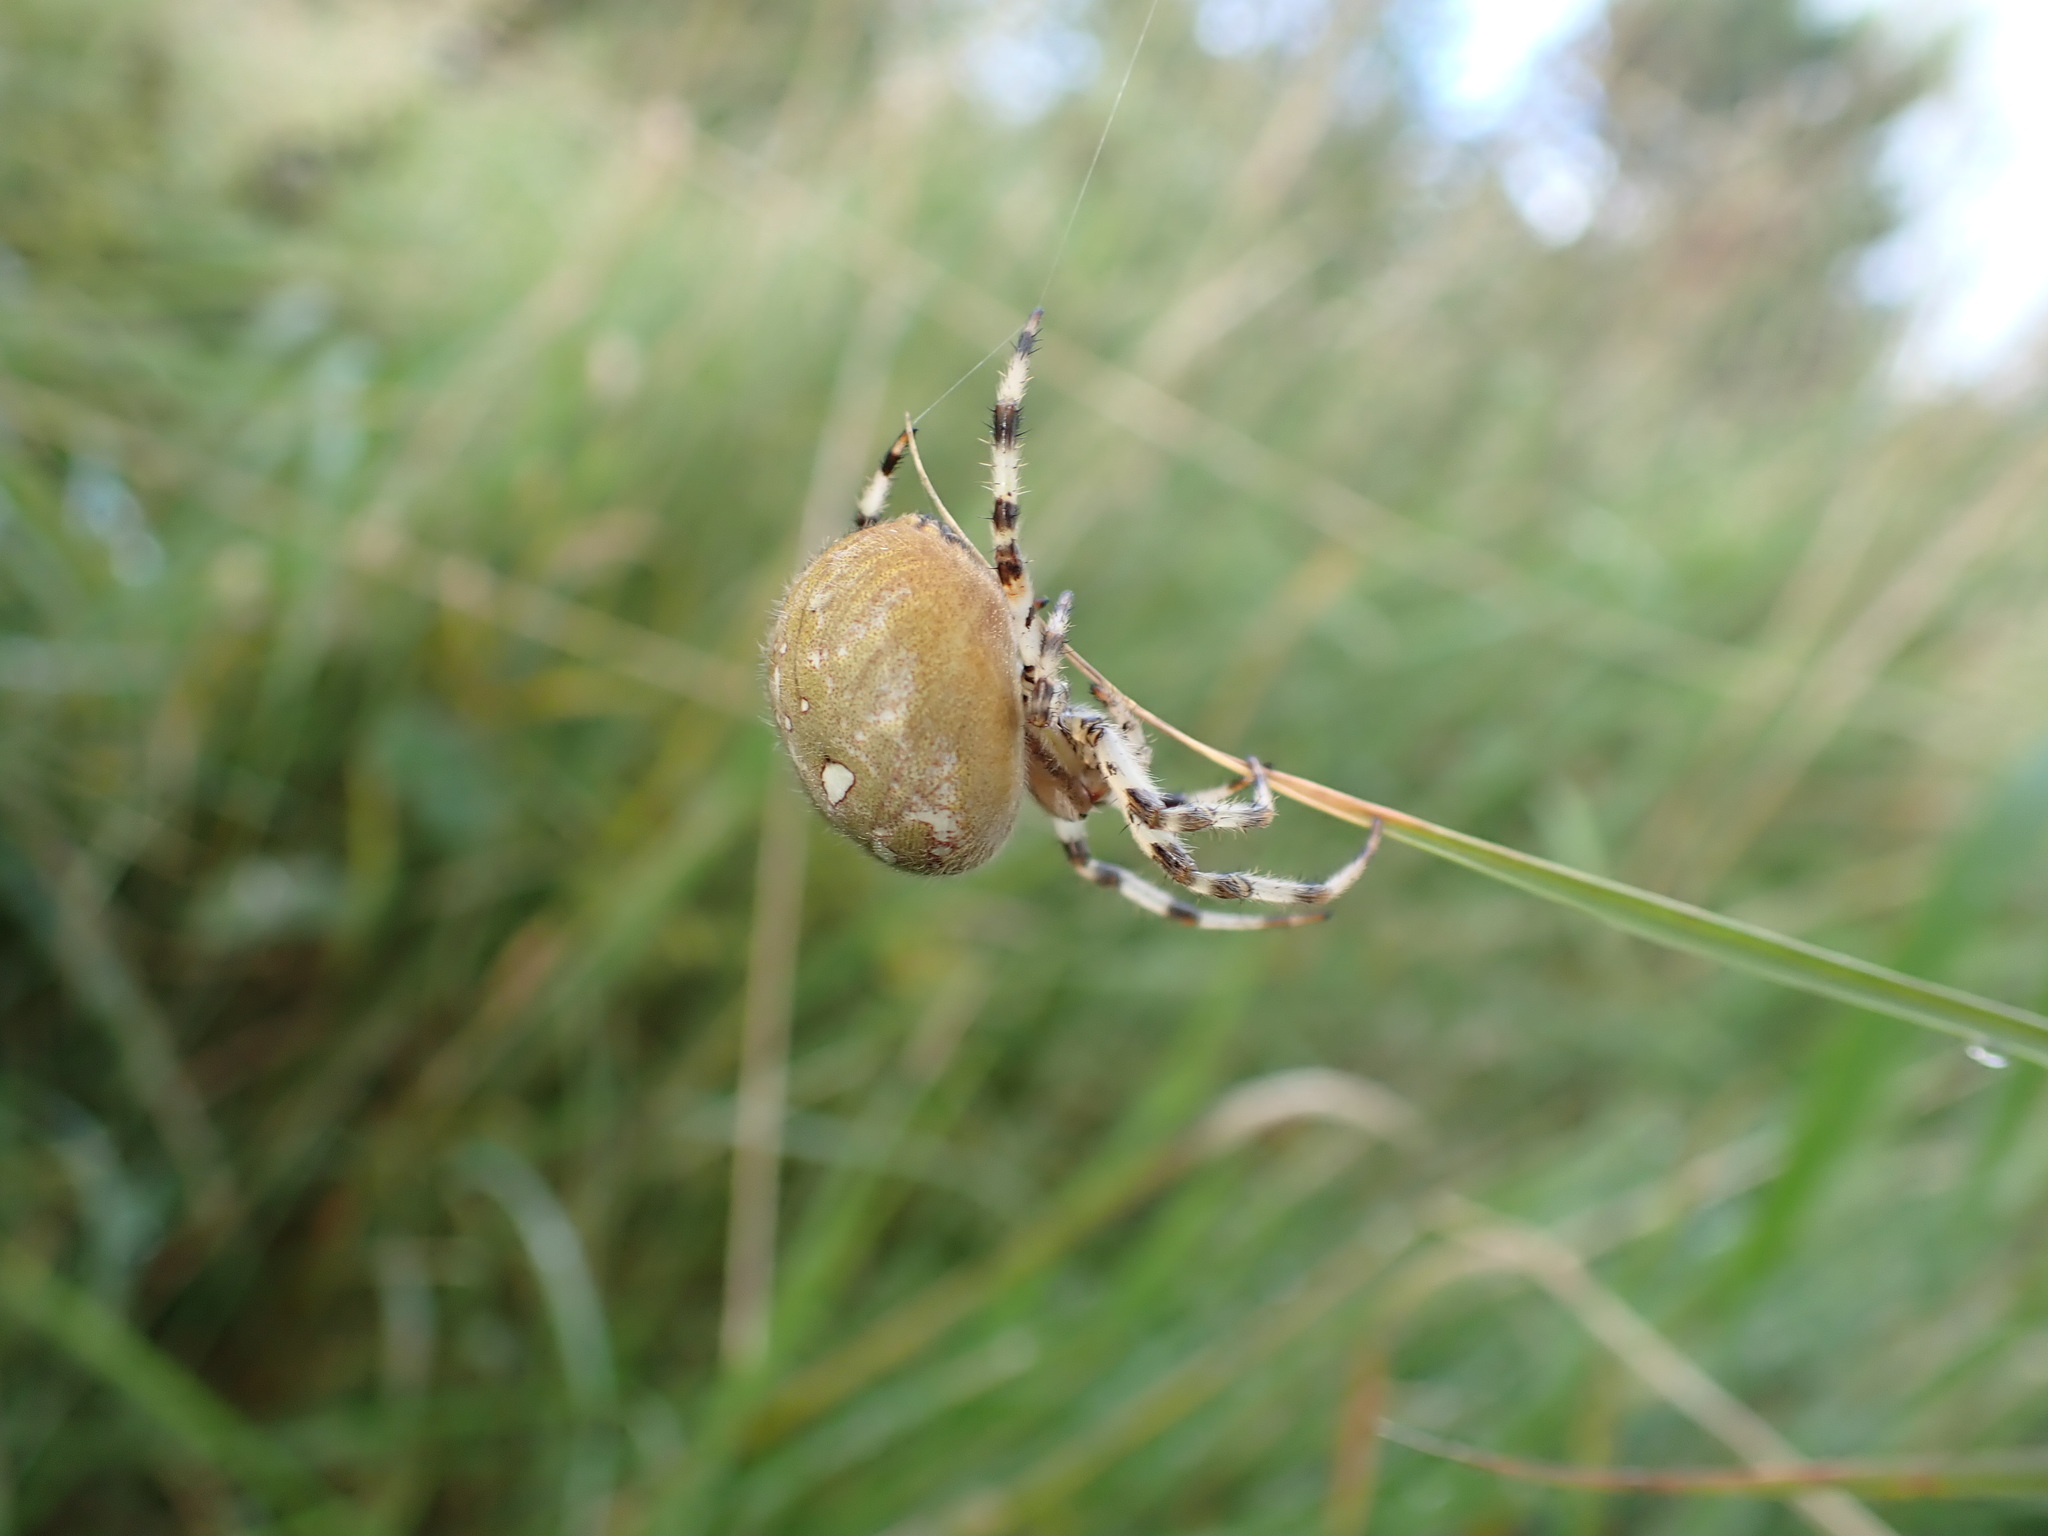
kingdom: Animalia
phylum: Arthropoda
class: Arachnida
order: Araneae
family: Araneidae
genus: Araneus
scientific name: Araneus quadratus
